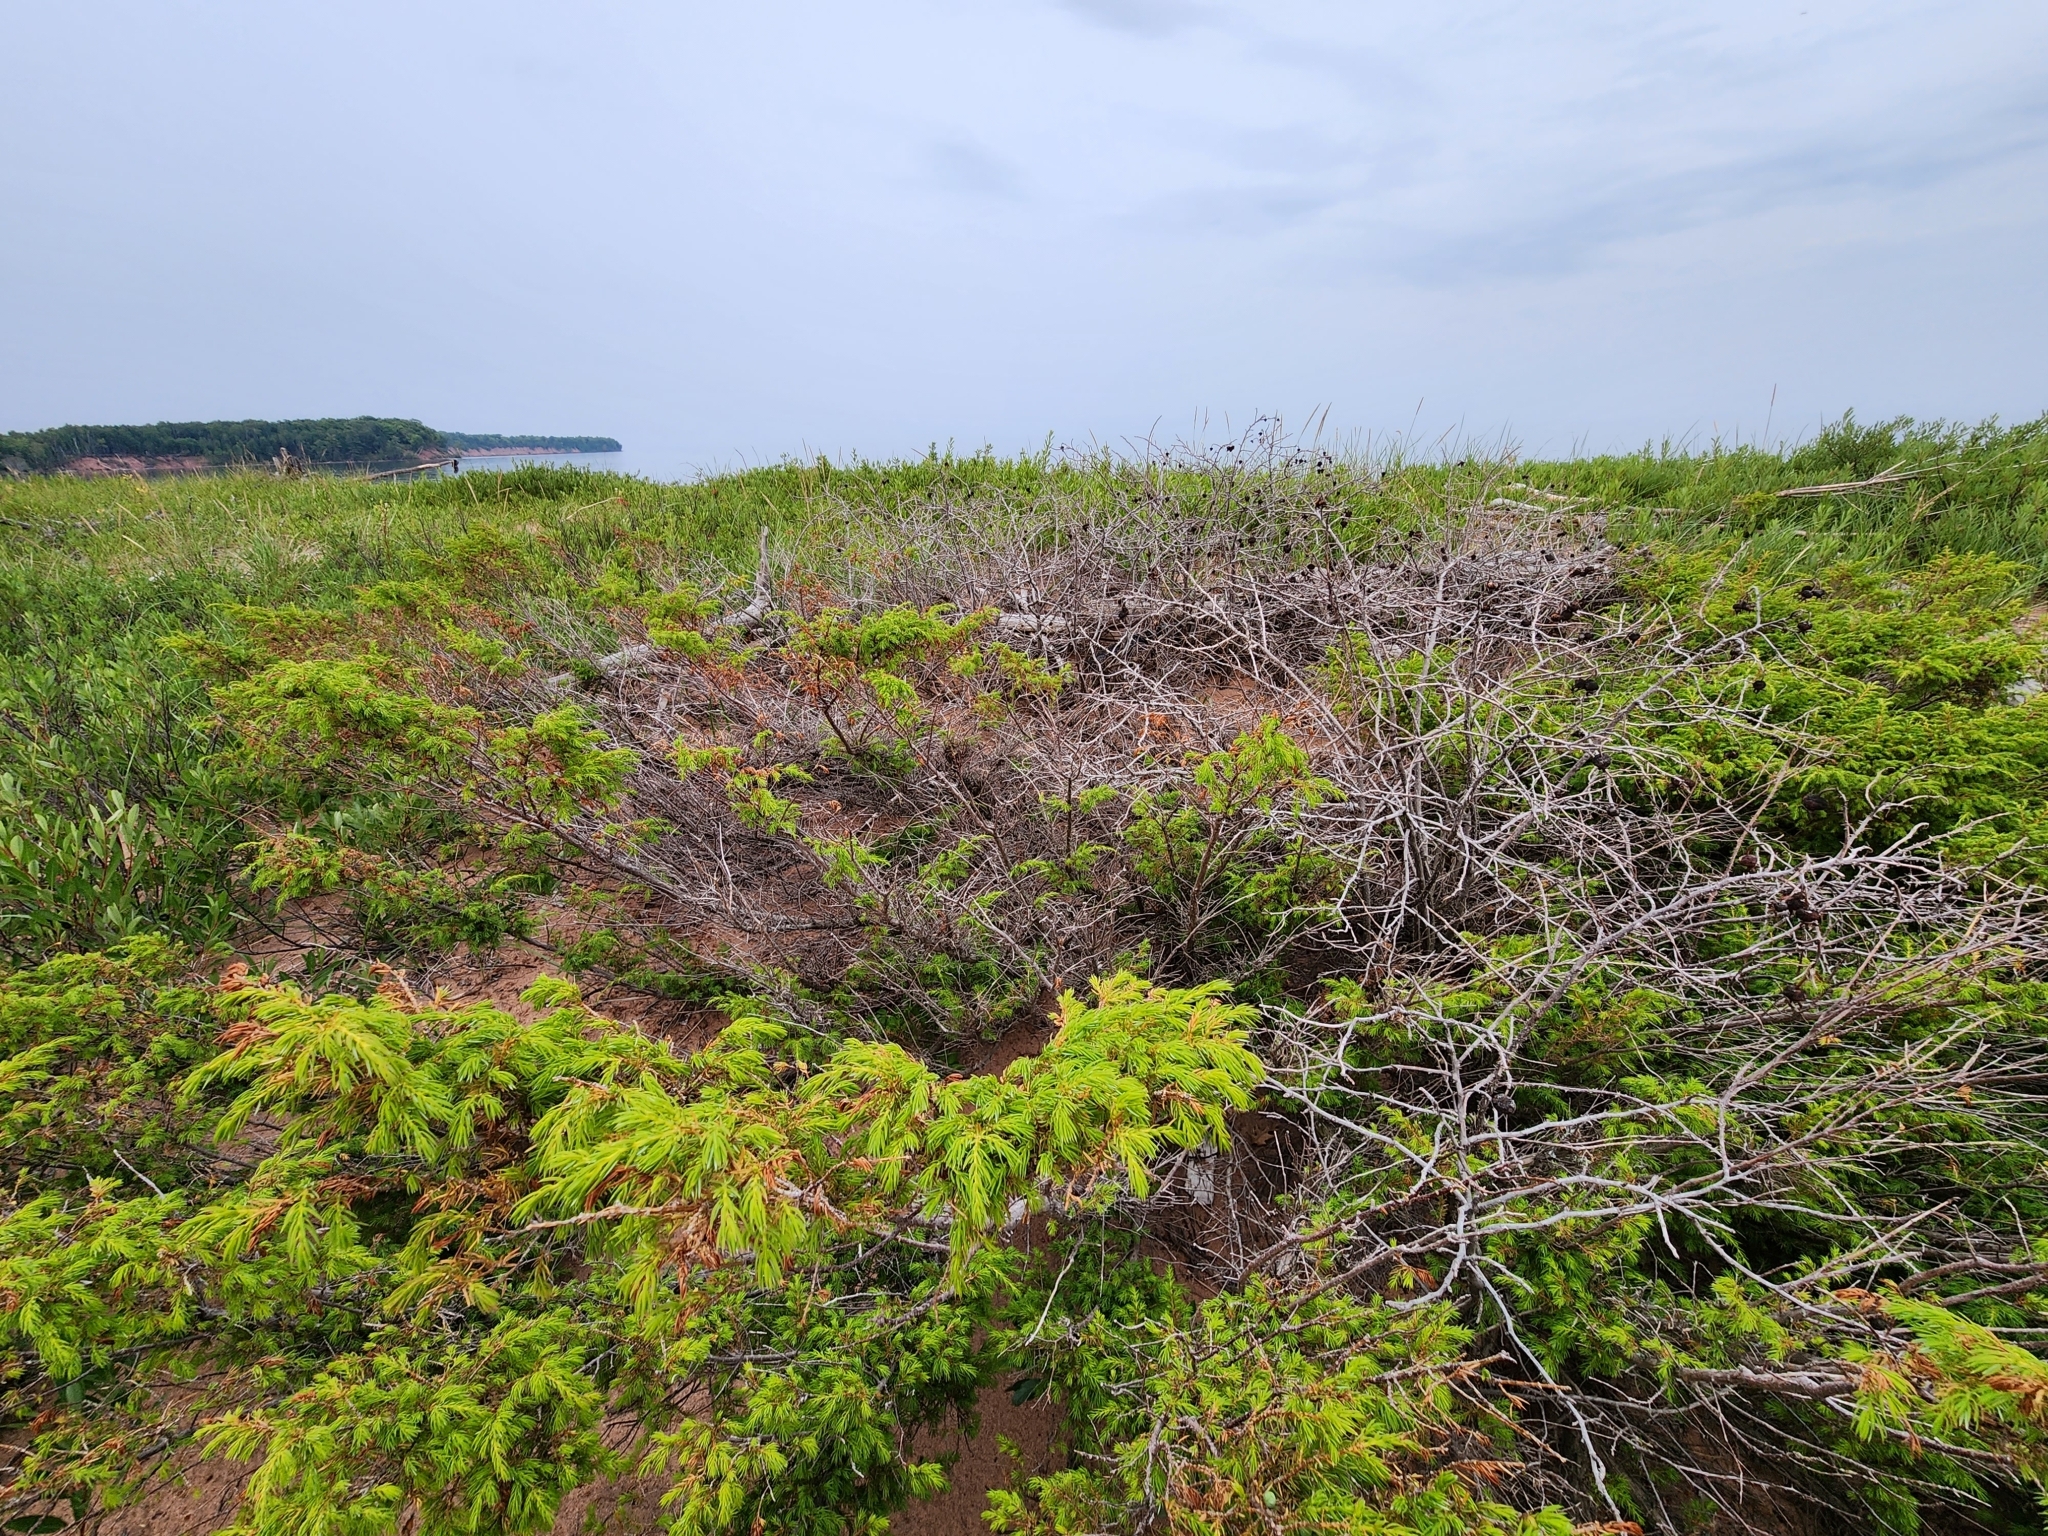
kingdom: Plantae
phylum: Tracheophyta
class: Pinopsida
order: Pinales
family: Cupressaceae
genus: Juniperus
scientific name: Juniperus communis
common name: Common juniper
